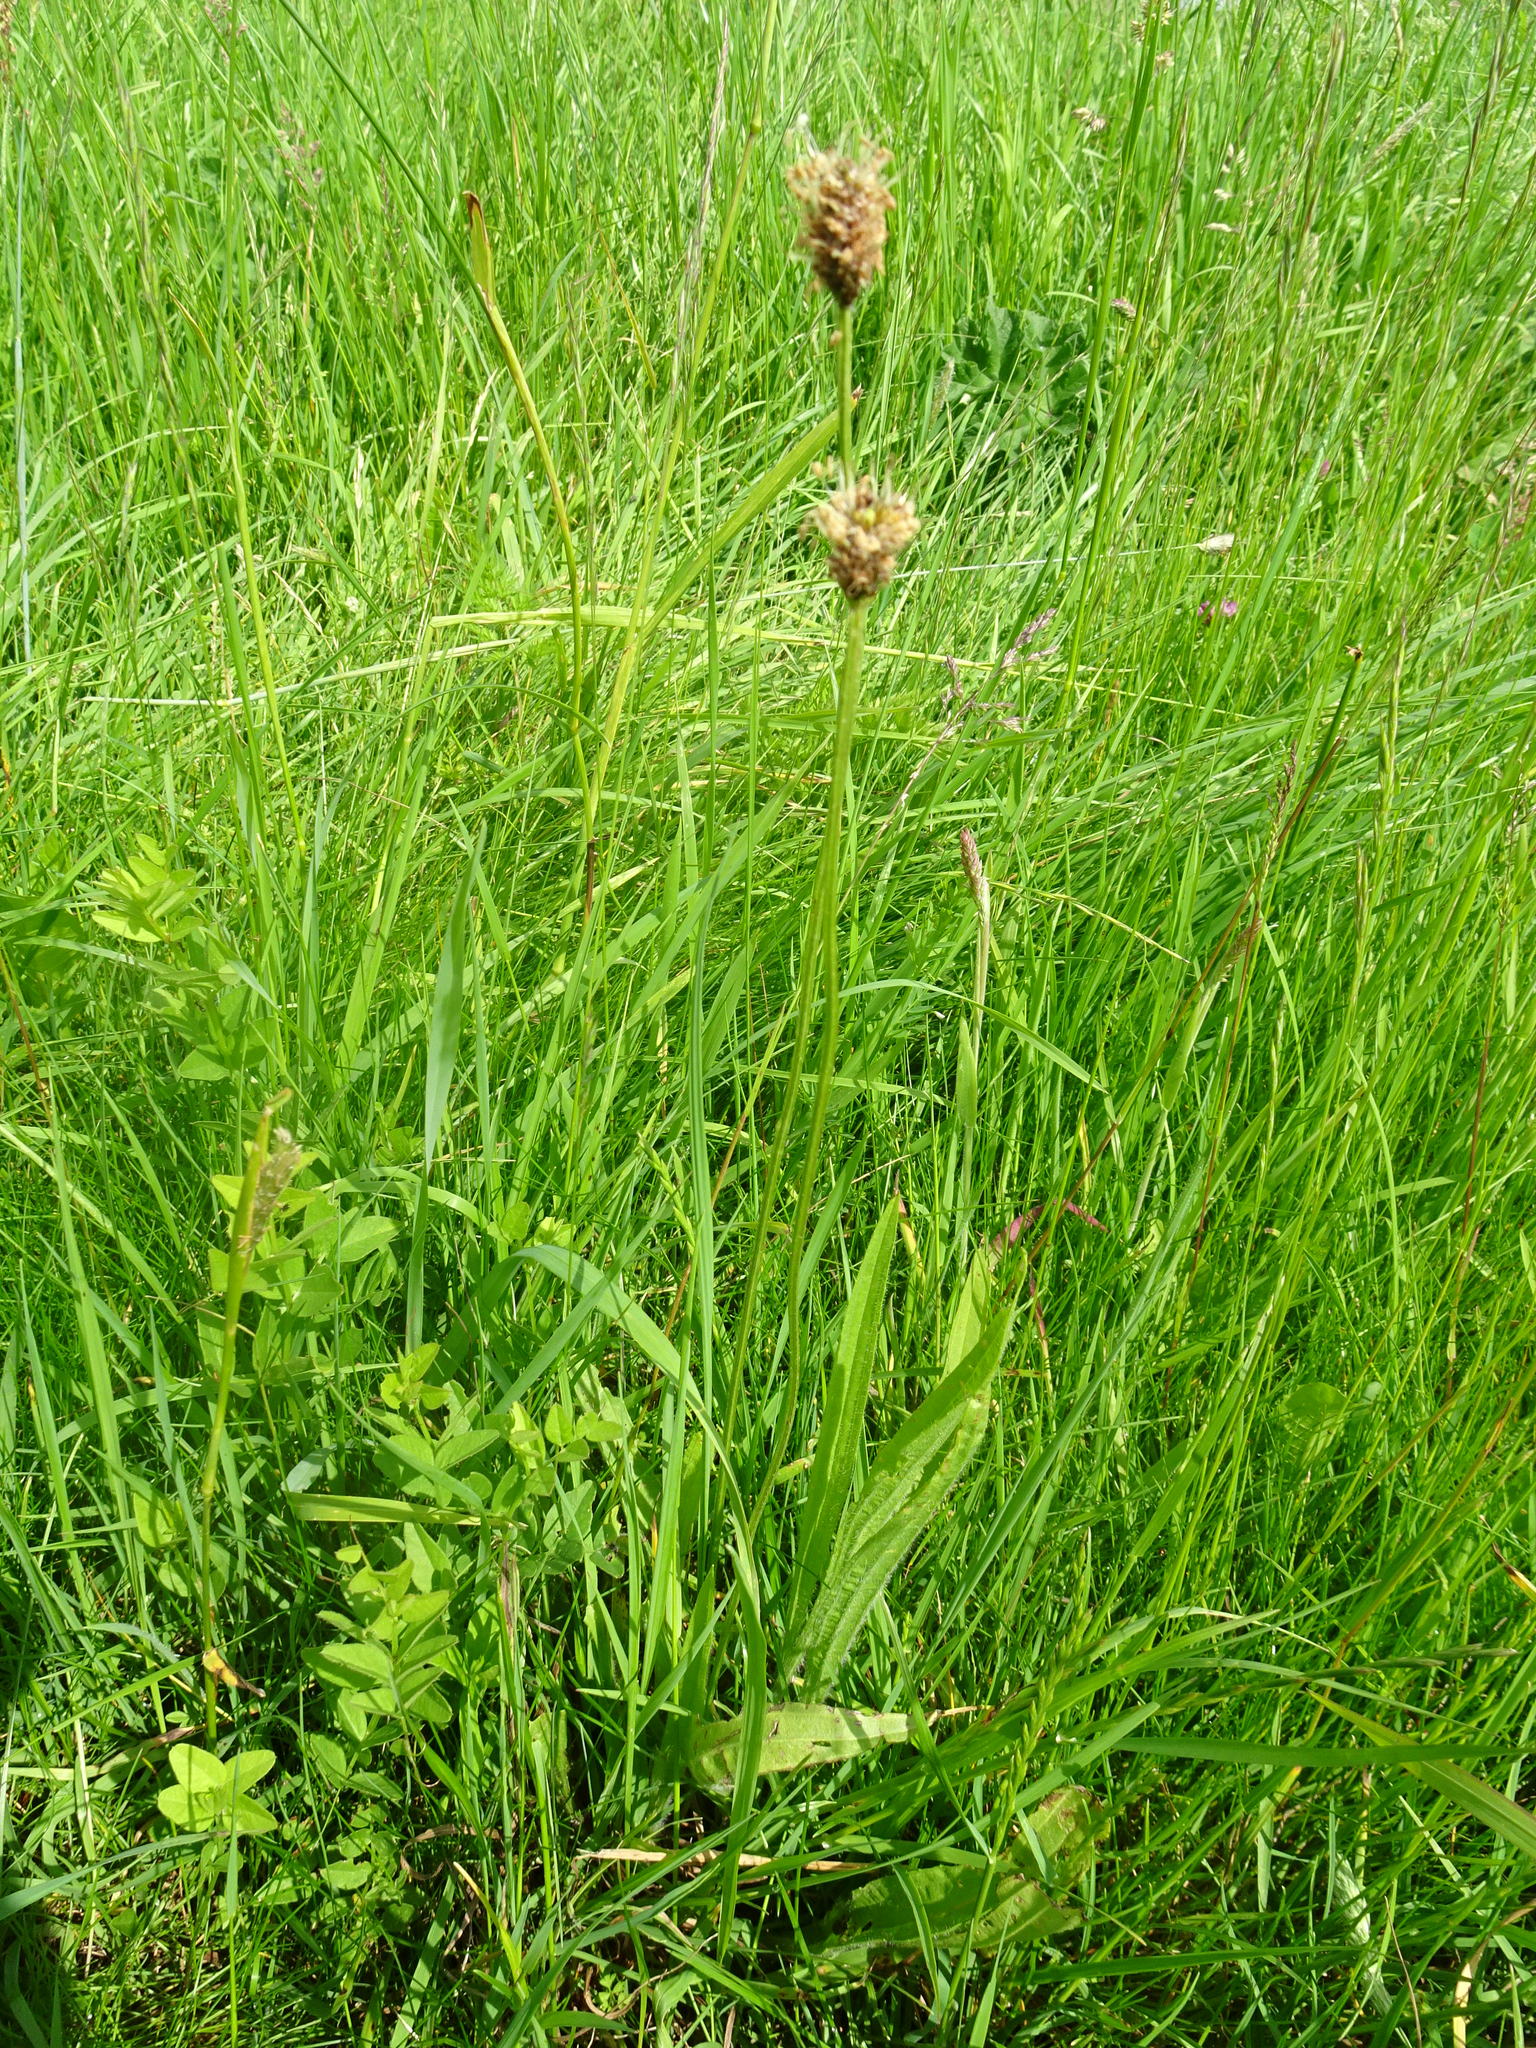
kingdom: Plantae
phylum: Tracheophyta
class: Magnoliopsida
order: Lamiales
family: Plantaginaceae
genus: Plantago
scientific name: Plantago lanceolata
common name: Ribwort plantain
